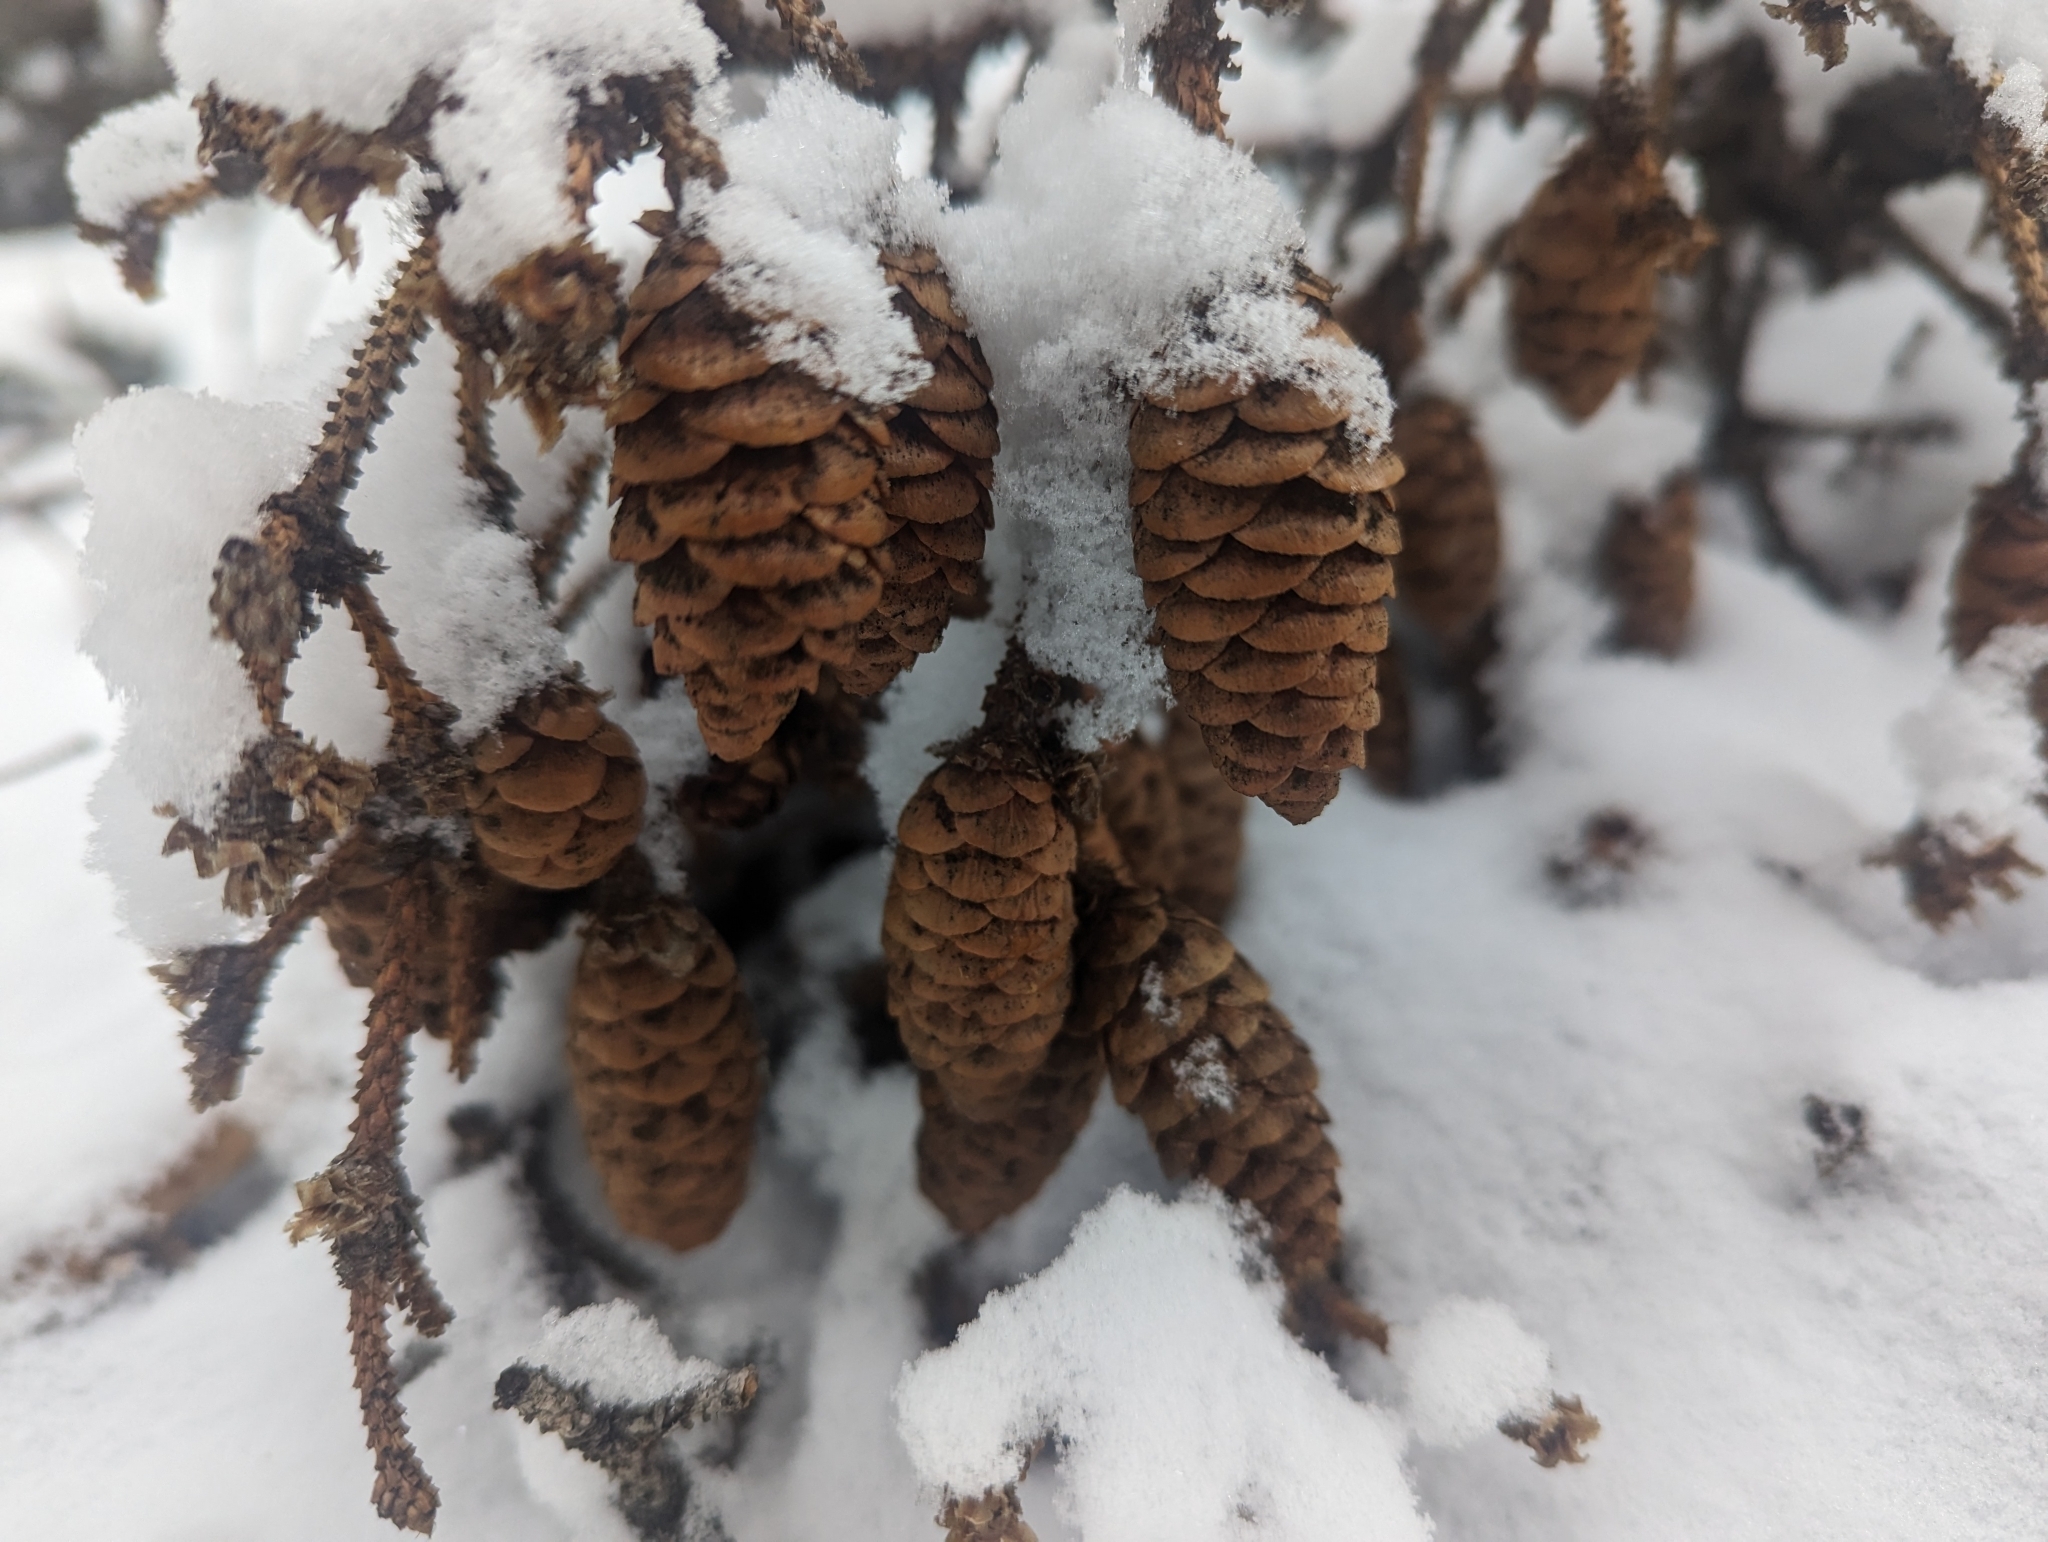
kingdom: Plantae
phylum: Tracheophyta
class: Pinopsida
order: Pinales
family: Pinaceae
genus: Picea
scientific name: Picea glauca
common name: White spruce
